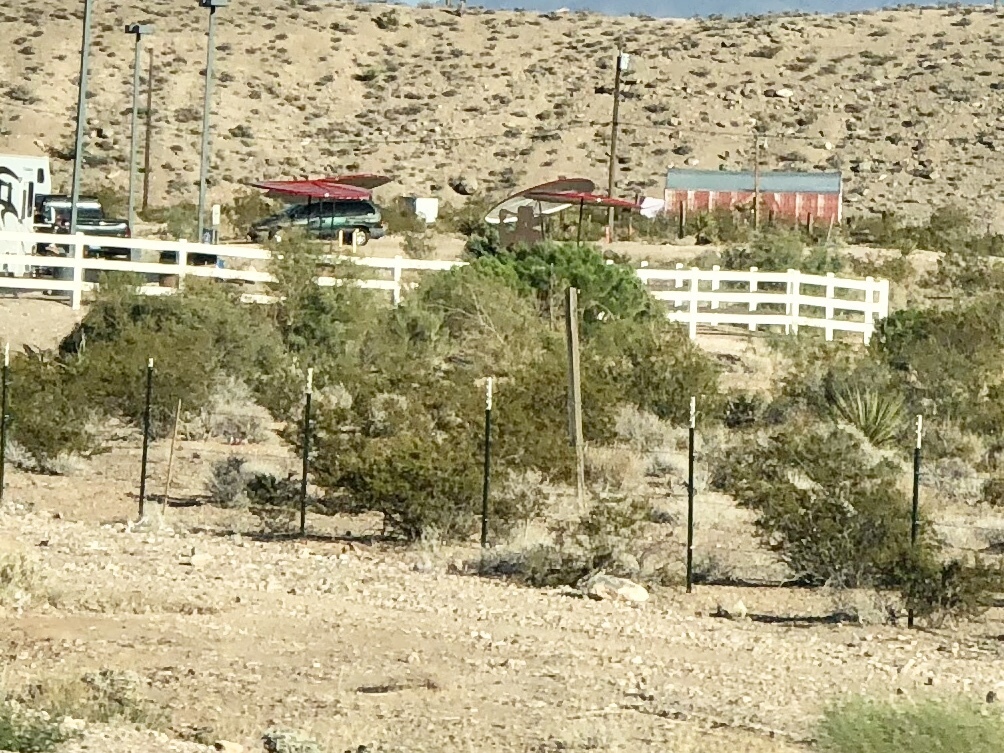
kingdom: Plantae
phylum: Tracheophyta
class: Magnoliopsida
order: Zygophyllales
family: Zygophyllaceae
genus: Larrea
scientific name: Larrea tridentata
